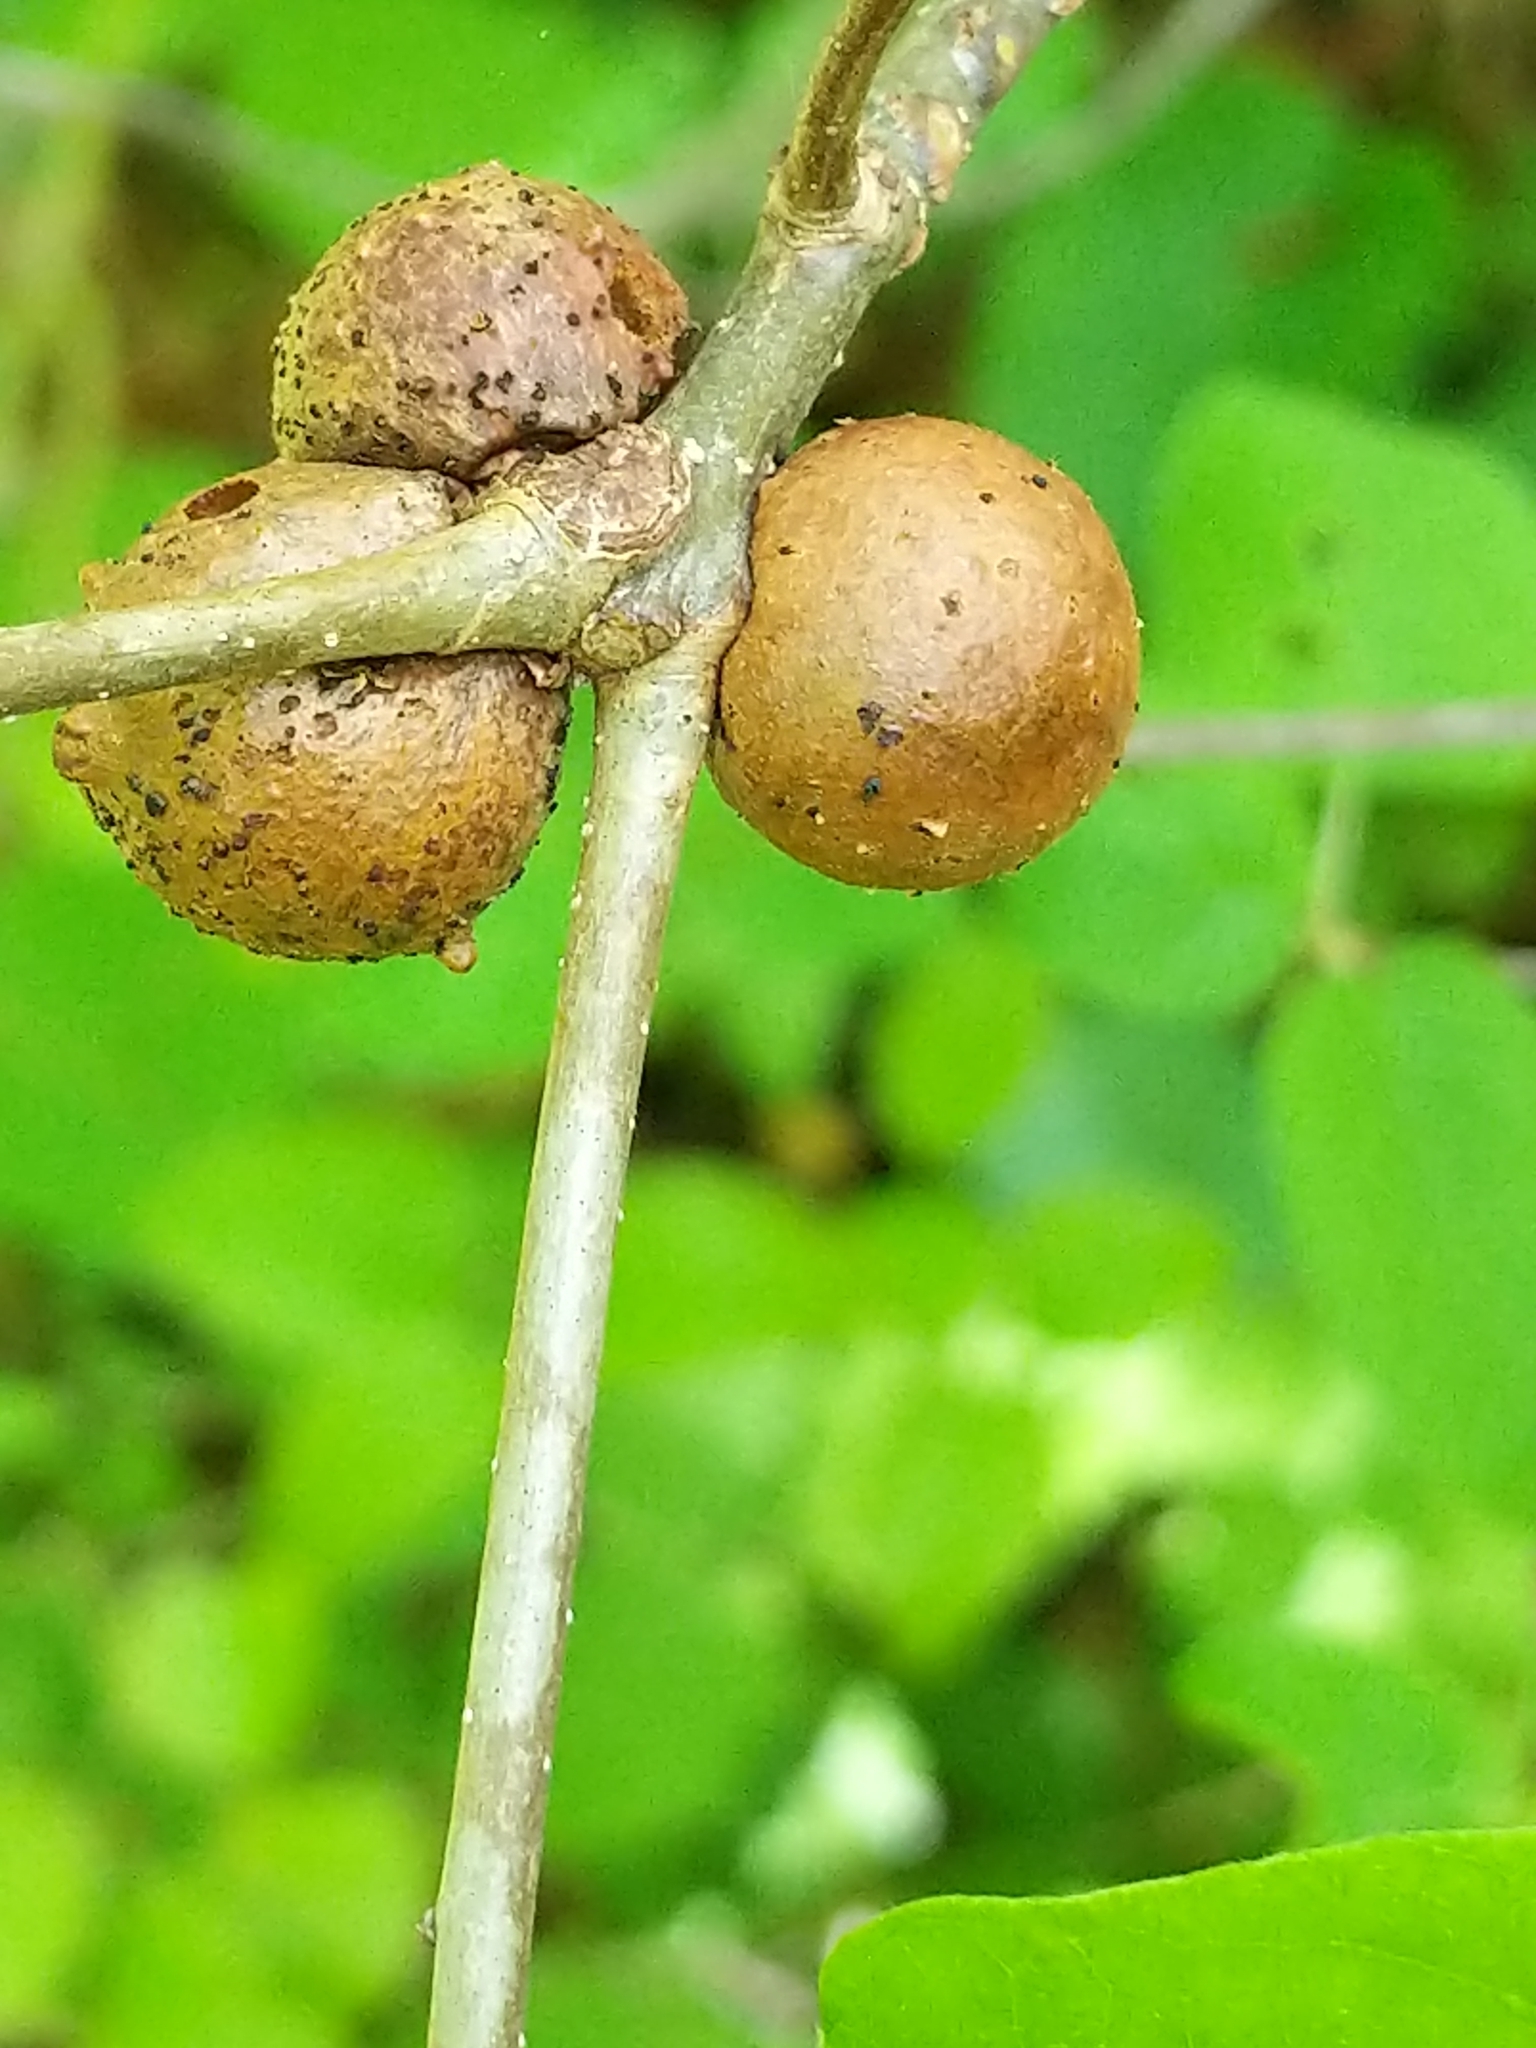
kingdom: Animalia
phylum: Arthropoda
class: Insecta
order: Hymenoptera
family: Cynipidae
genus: Disholcaspis
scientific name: Disholcaspis quercusglobulus
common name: Round bullet gall wasp
